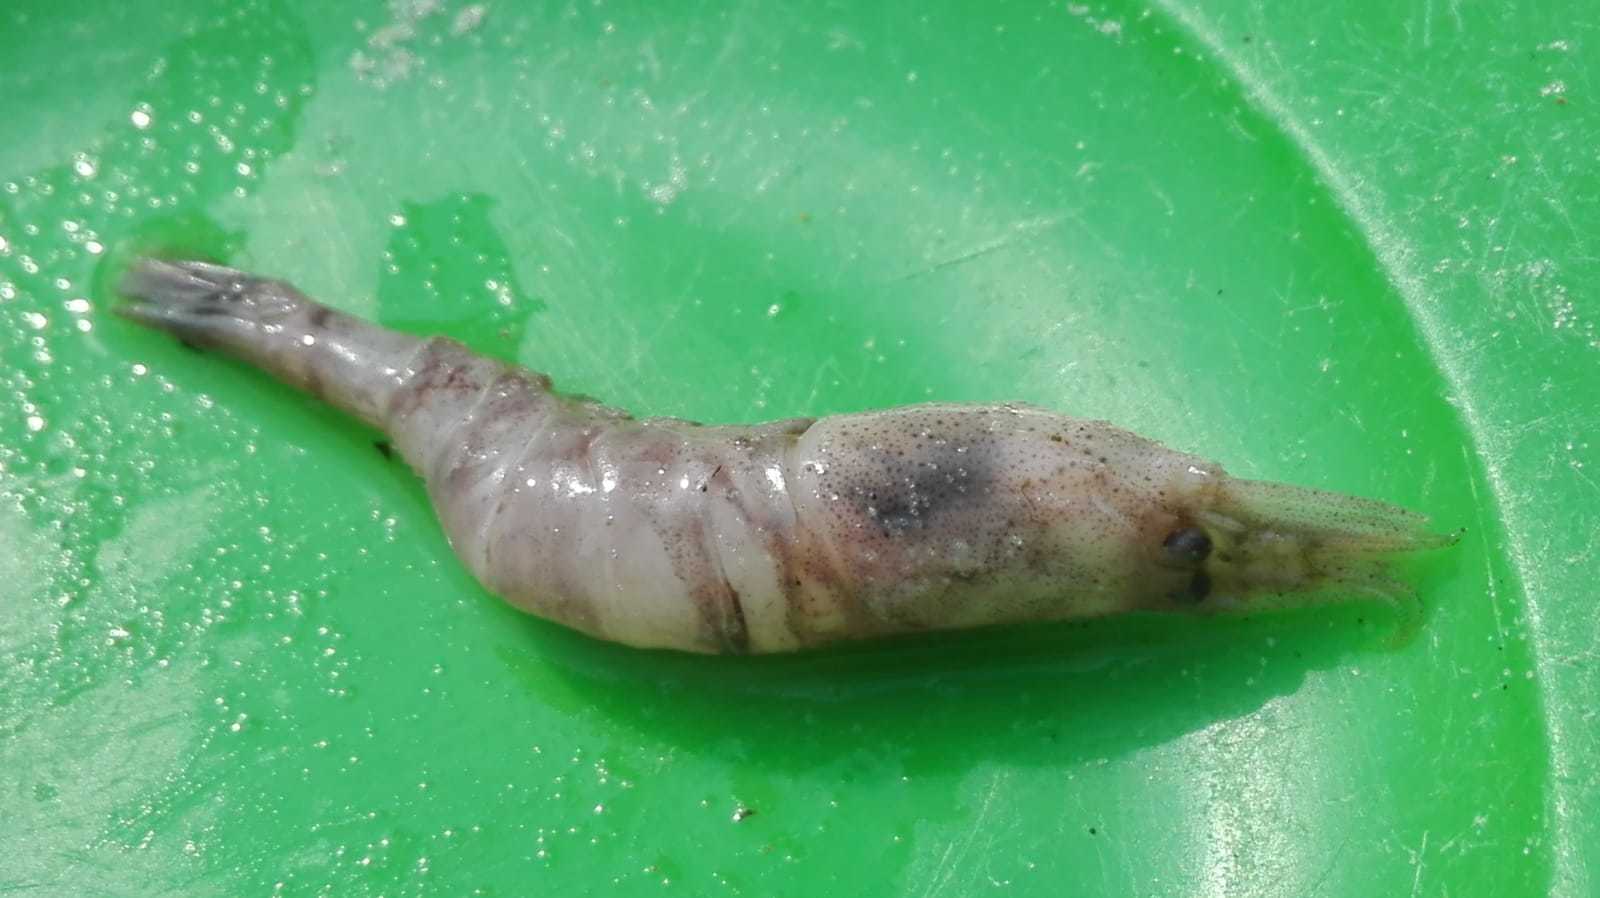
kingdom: Animalia
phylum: Arthropoda
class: Malacostraca
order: Decapoda
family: Crangonidae
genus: Crangon
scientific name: Crangon crangon
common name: Brown shrimp
